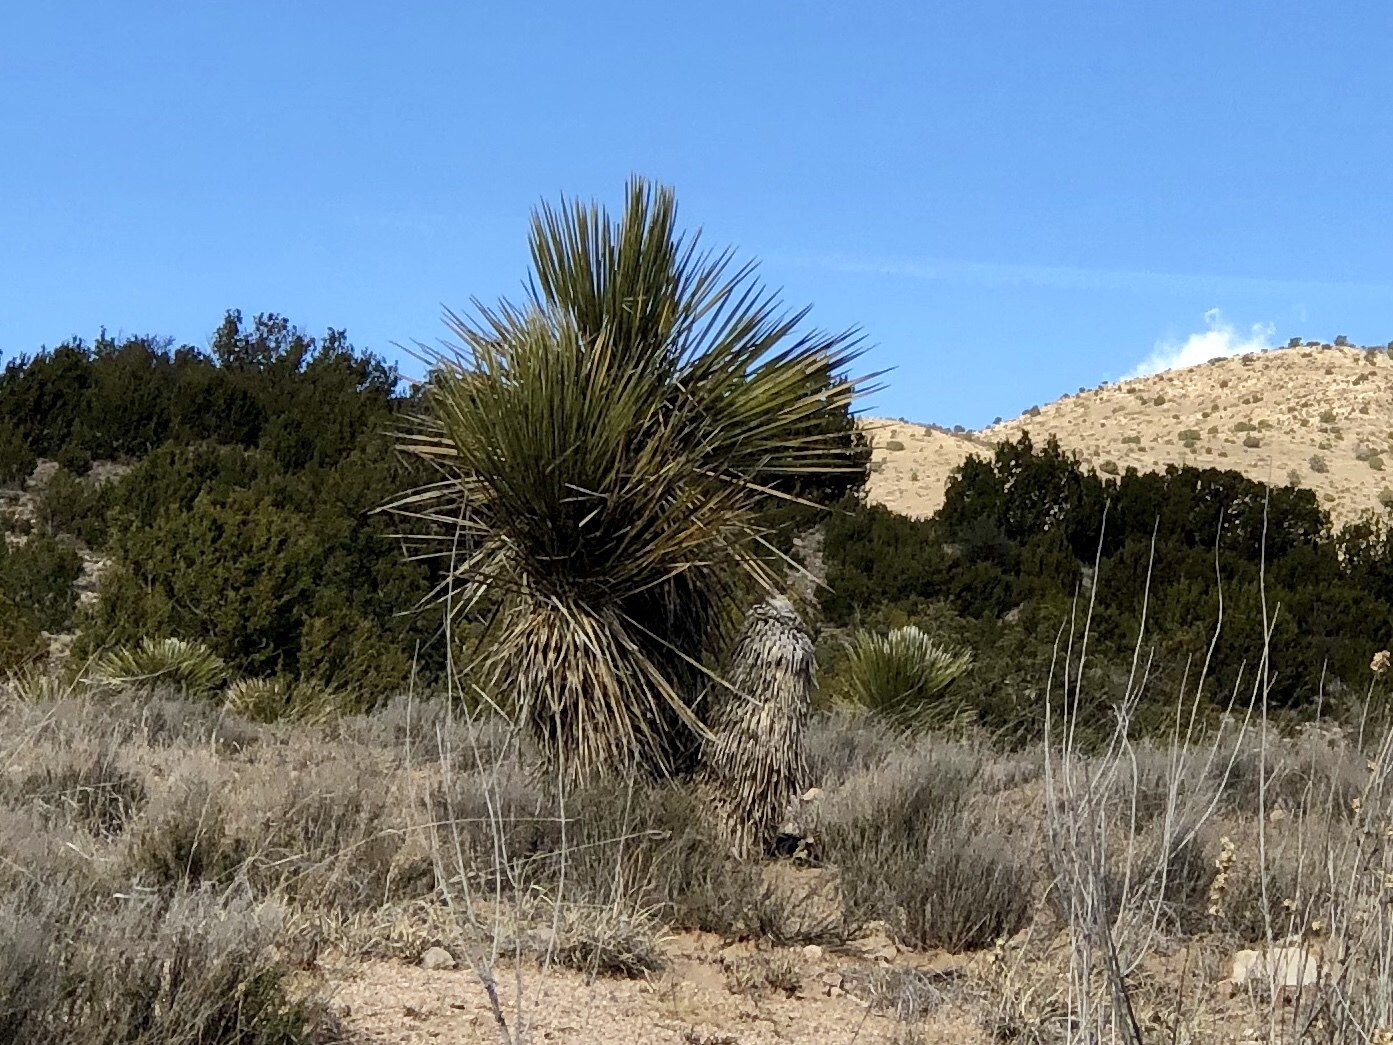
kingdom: Plantae
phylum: Tracheophyta
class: Liliopsida
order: Asparagales
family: Asparagaceae
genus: Yucca
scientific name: Yucca elata
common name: Palmella
